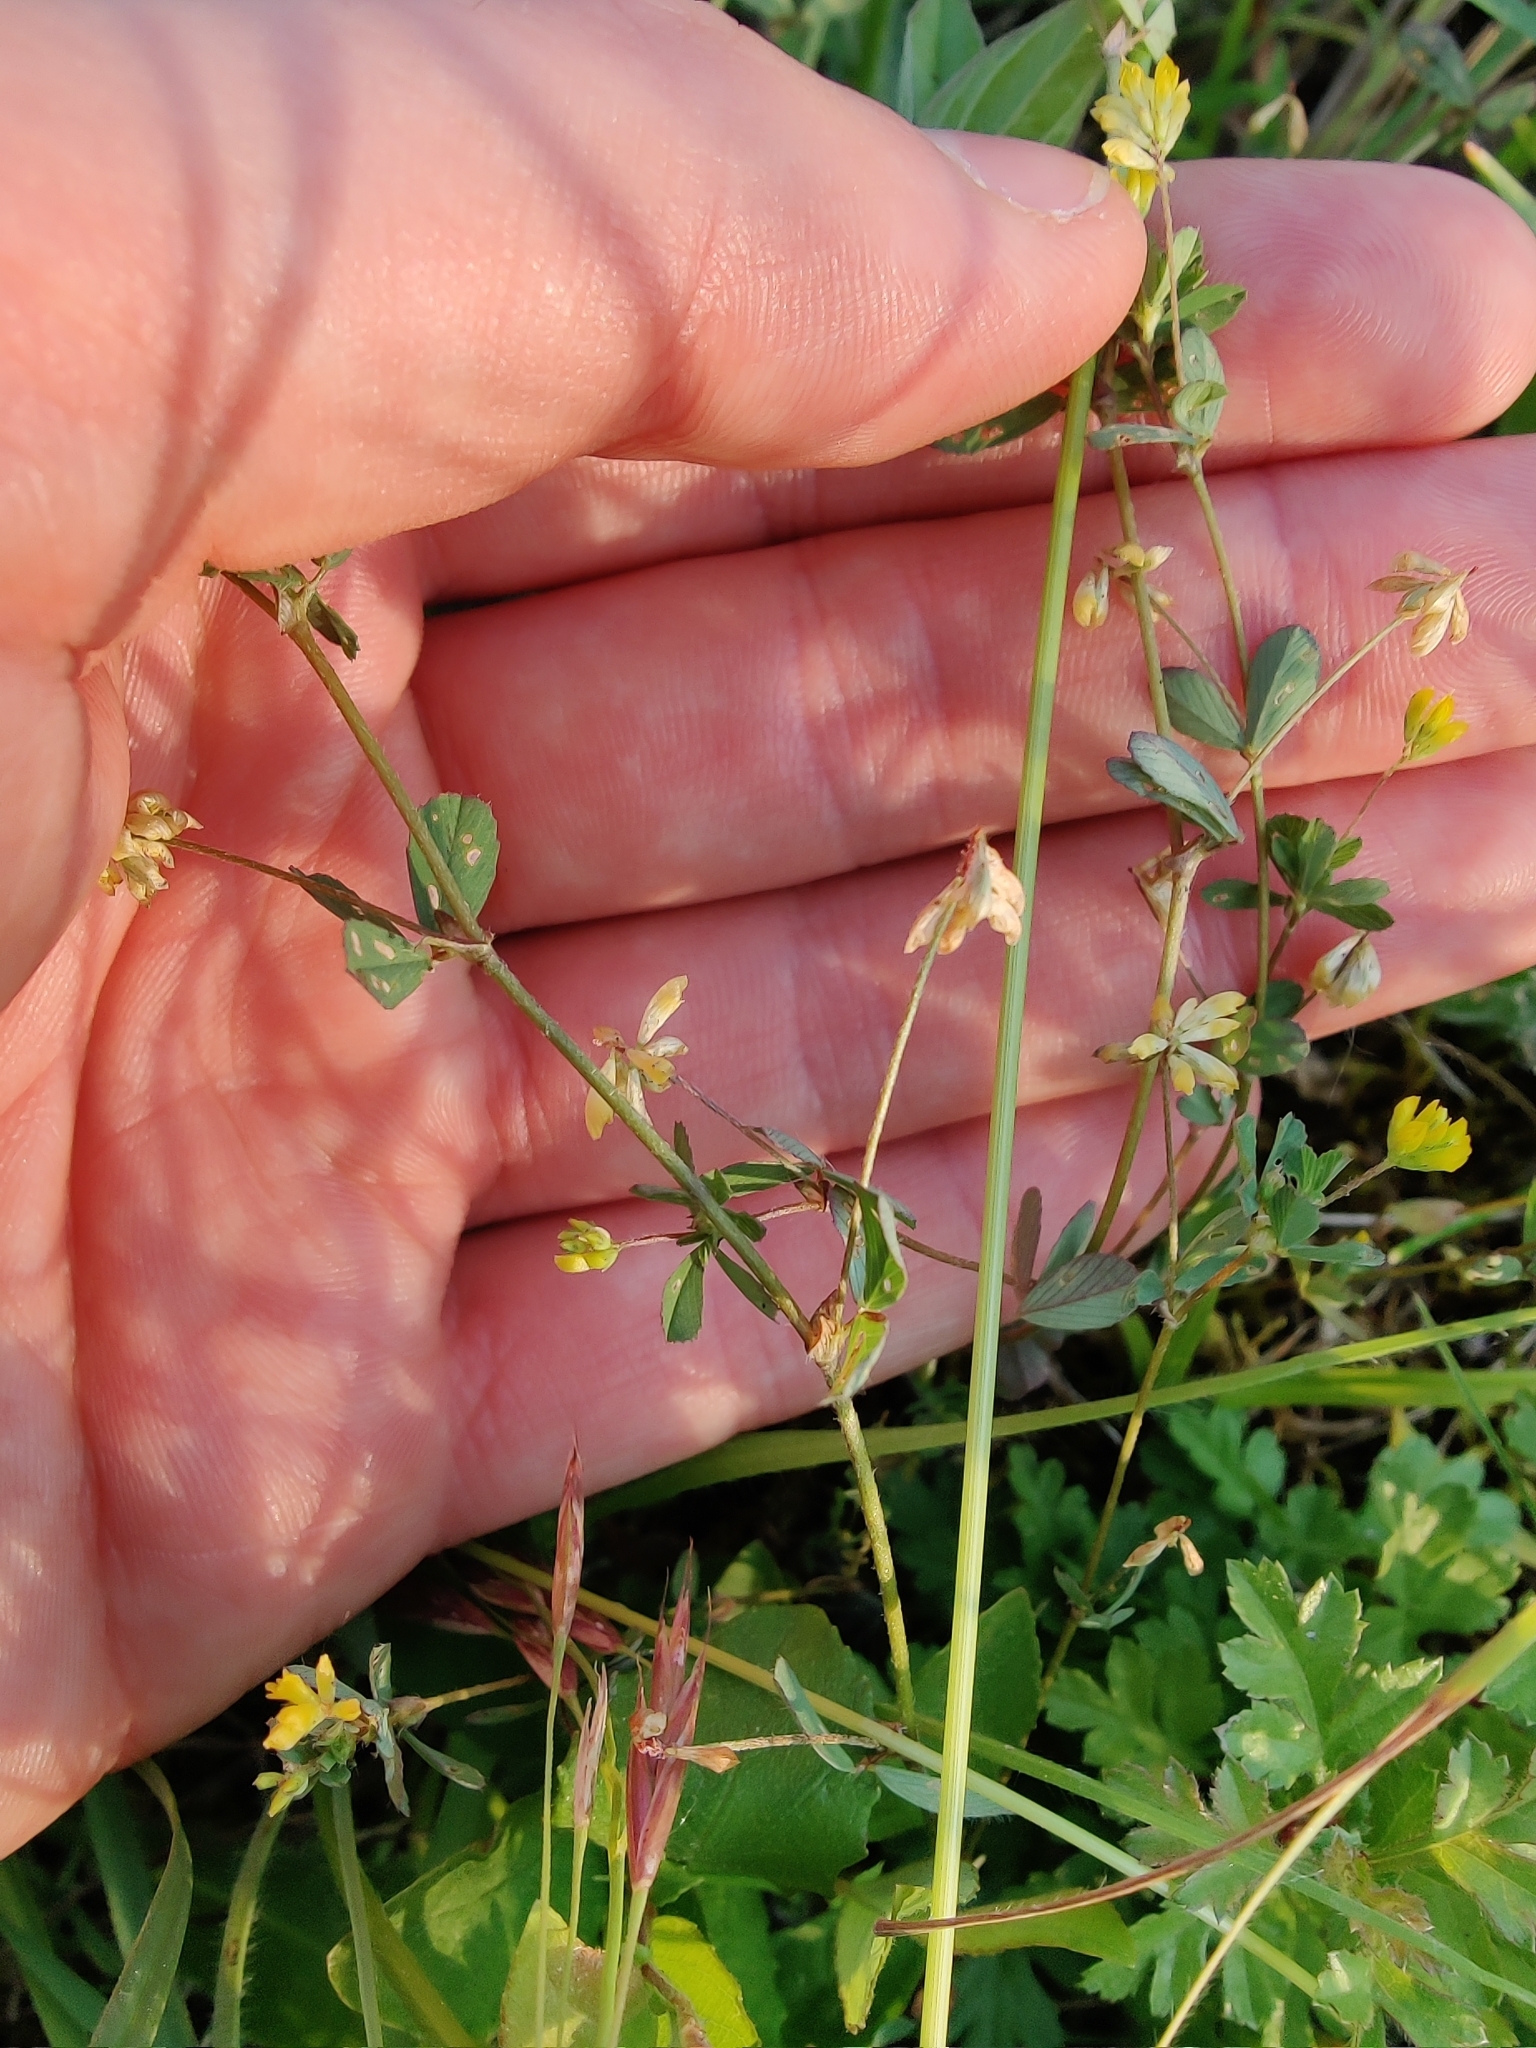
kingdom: Plantae
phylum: Tracheophyta
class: Magnoliopsida
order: Fabales
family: Fabaceae
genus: Trifolium
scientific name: Trifolium dubium
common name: Suckling clover
